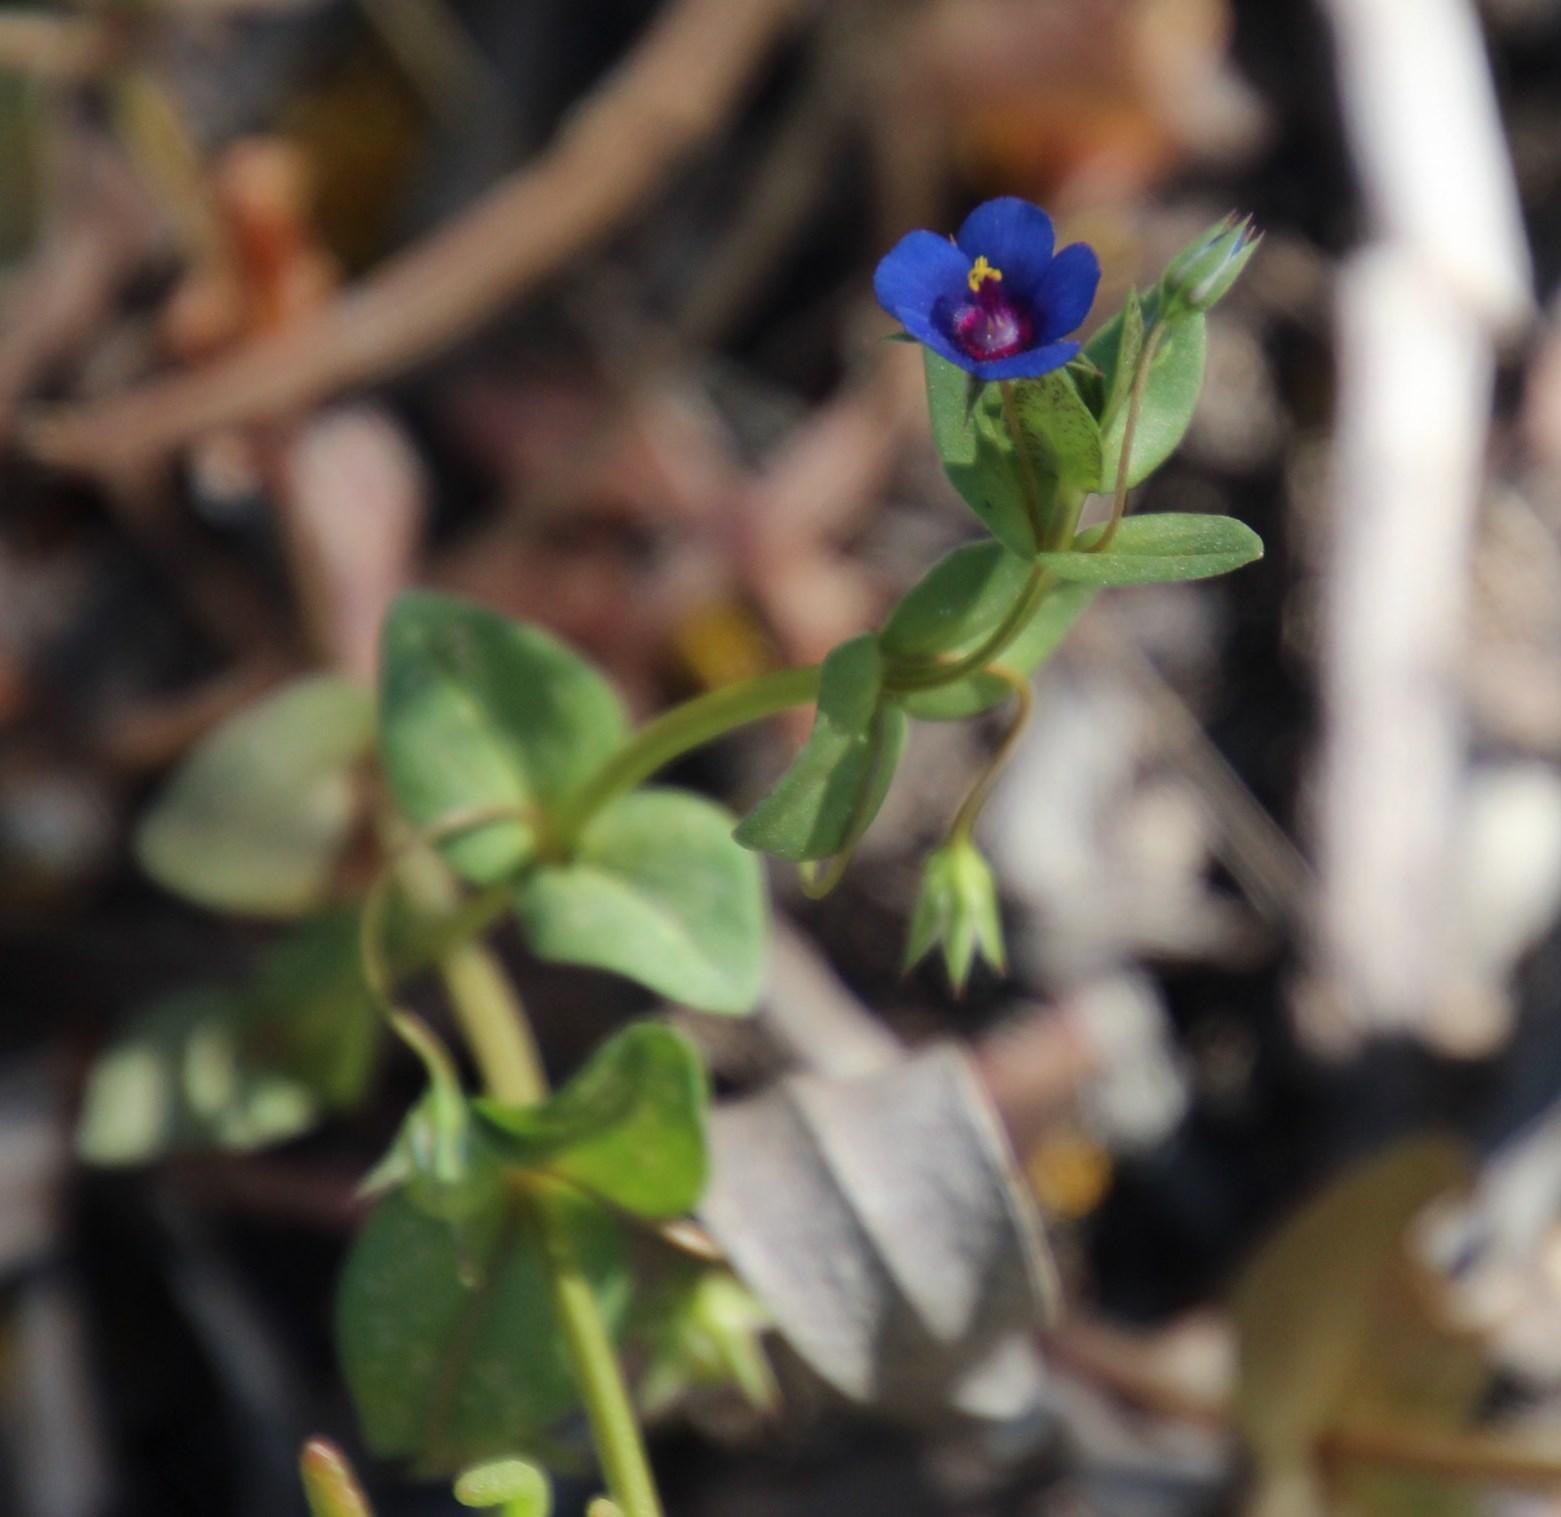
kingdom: Plantae
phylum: Tracheophyta
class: Magnoliopsida
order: Ericales
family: Primulaceae
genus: Lysimachia
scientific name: Lysimachia loeflingii
